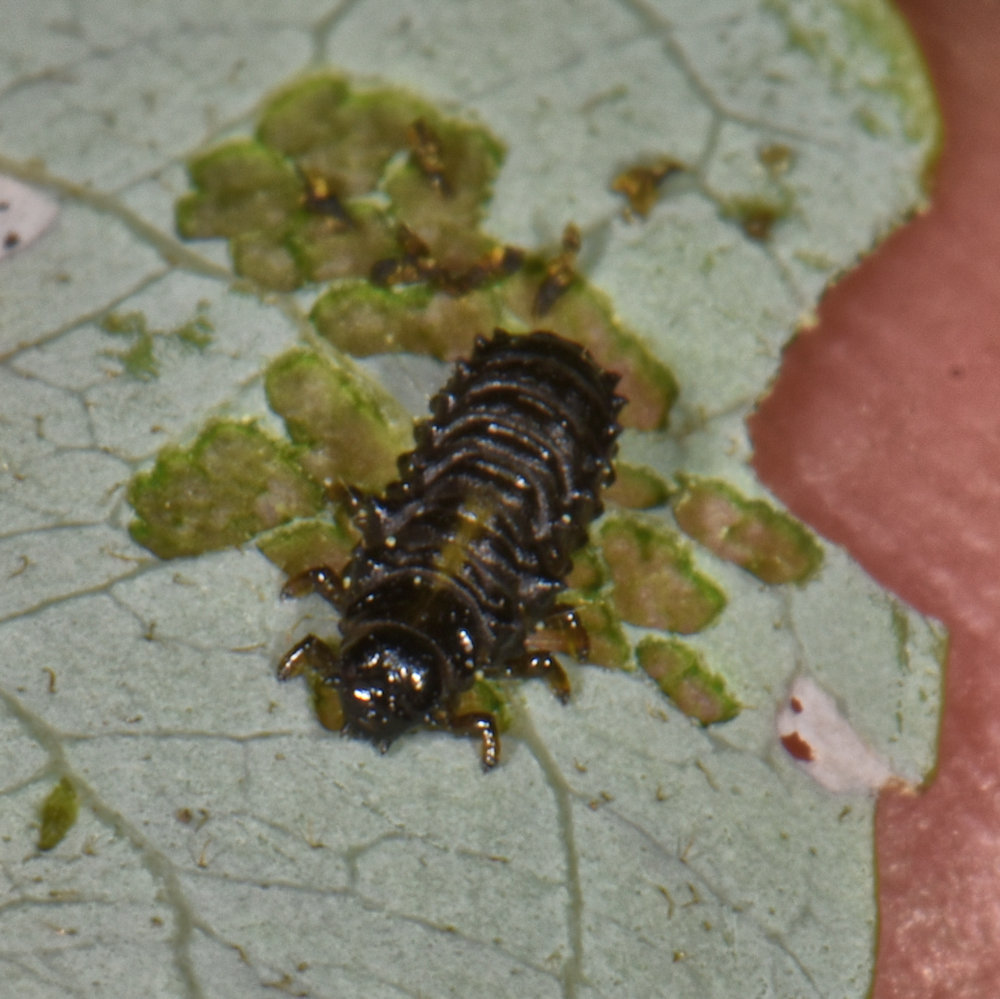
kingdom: Animalia
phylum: Arthropoda
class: Insecta
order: Coleoptera
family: Chrysomelidae
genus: Plagiodera
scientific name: Plagiodera versicolora
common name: Imported willow leaf beetle
